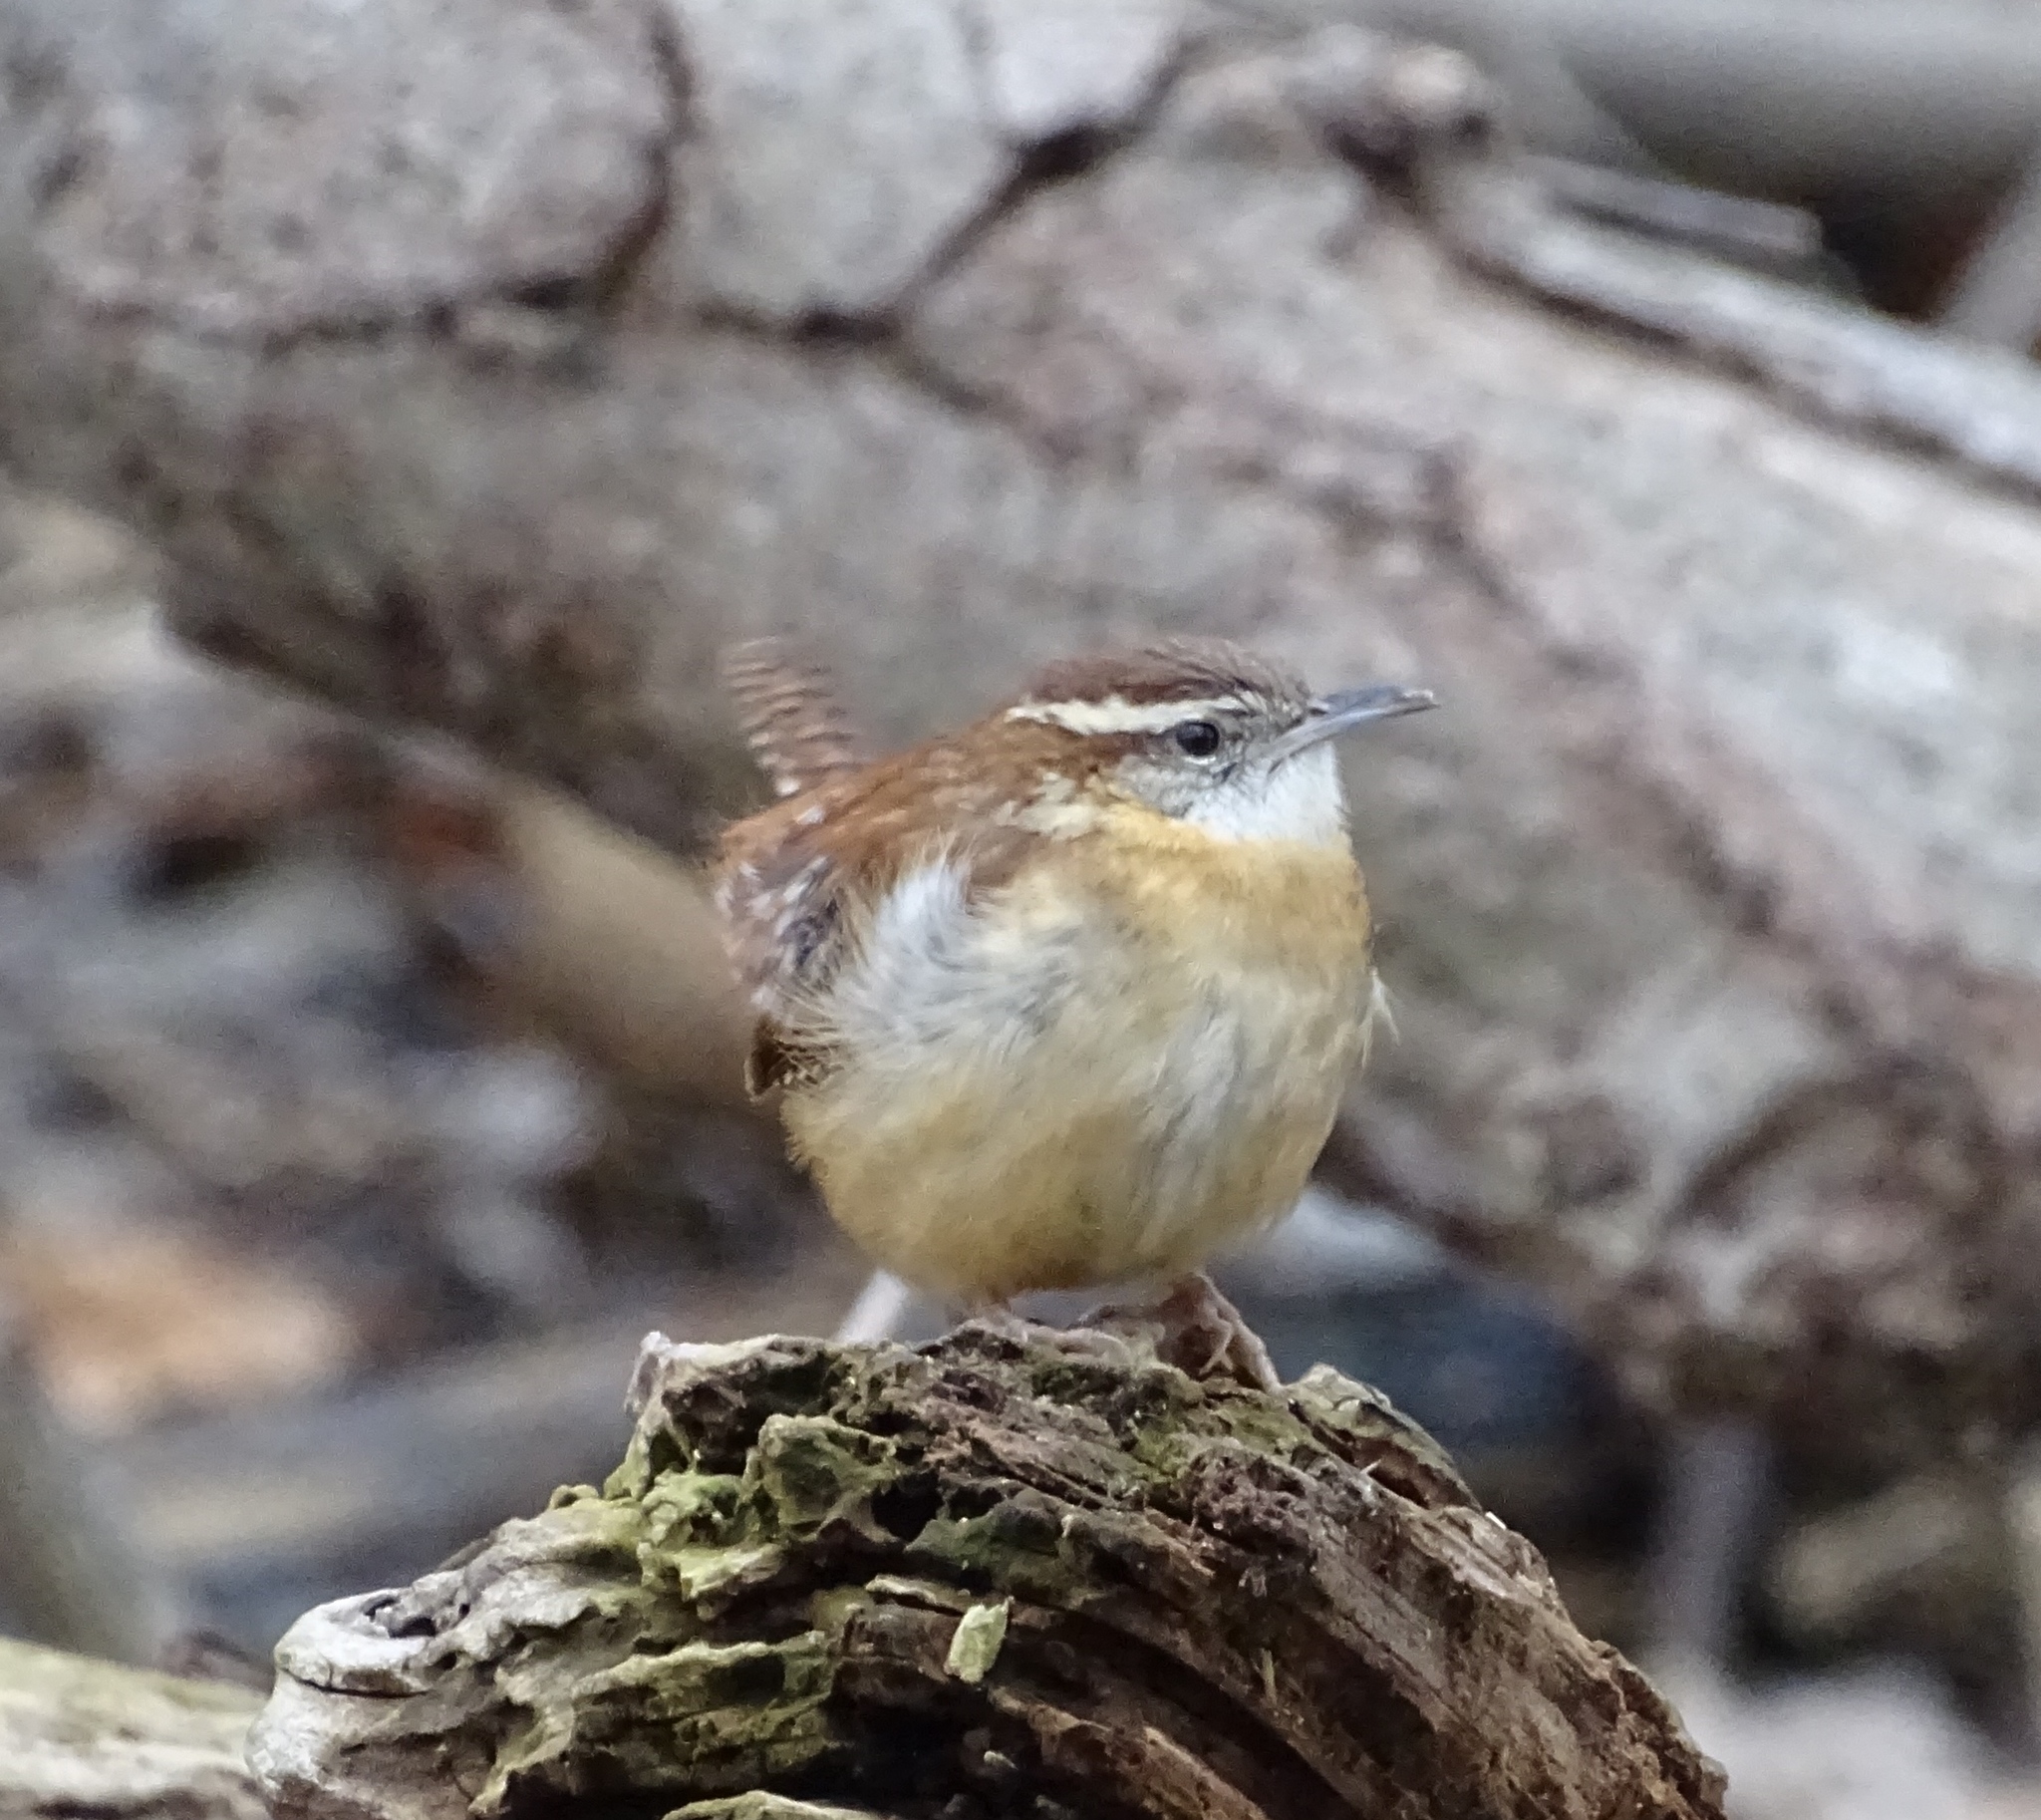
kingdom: Animalia
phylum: Chordata
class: Aves
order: Passeriformes
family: Troglodytidae
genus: Thryothorus
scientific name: Thryothorus ludovicianus
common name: Carolina wren
